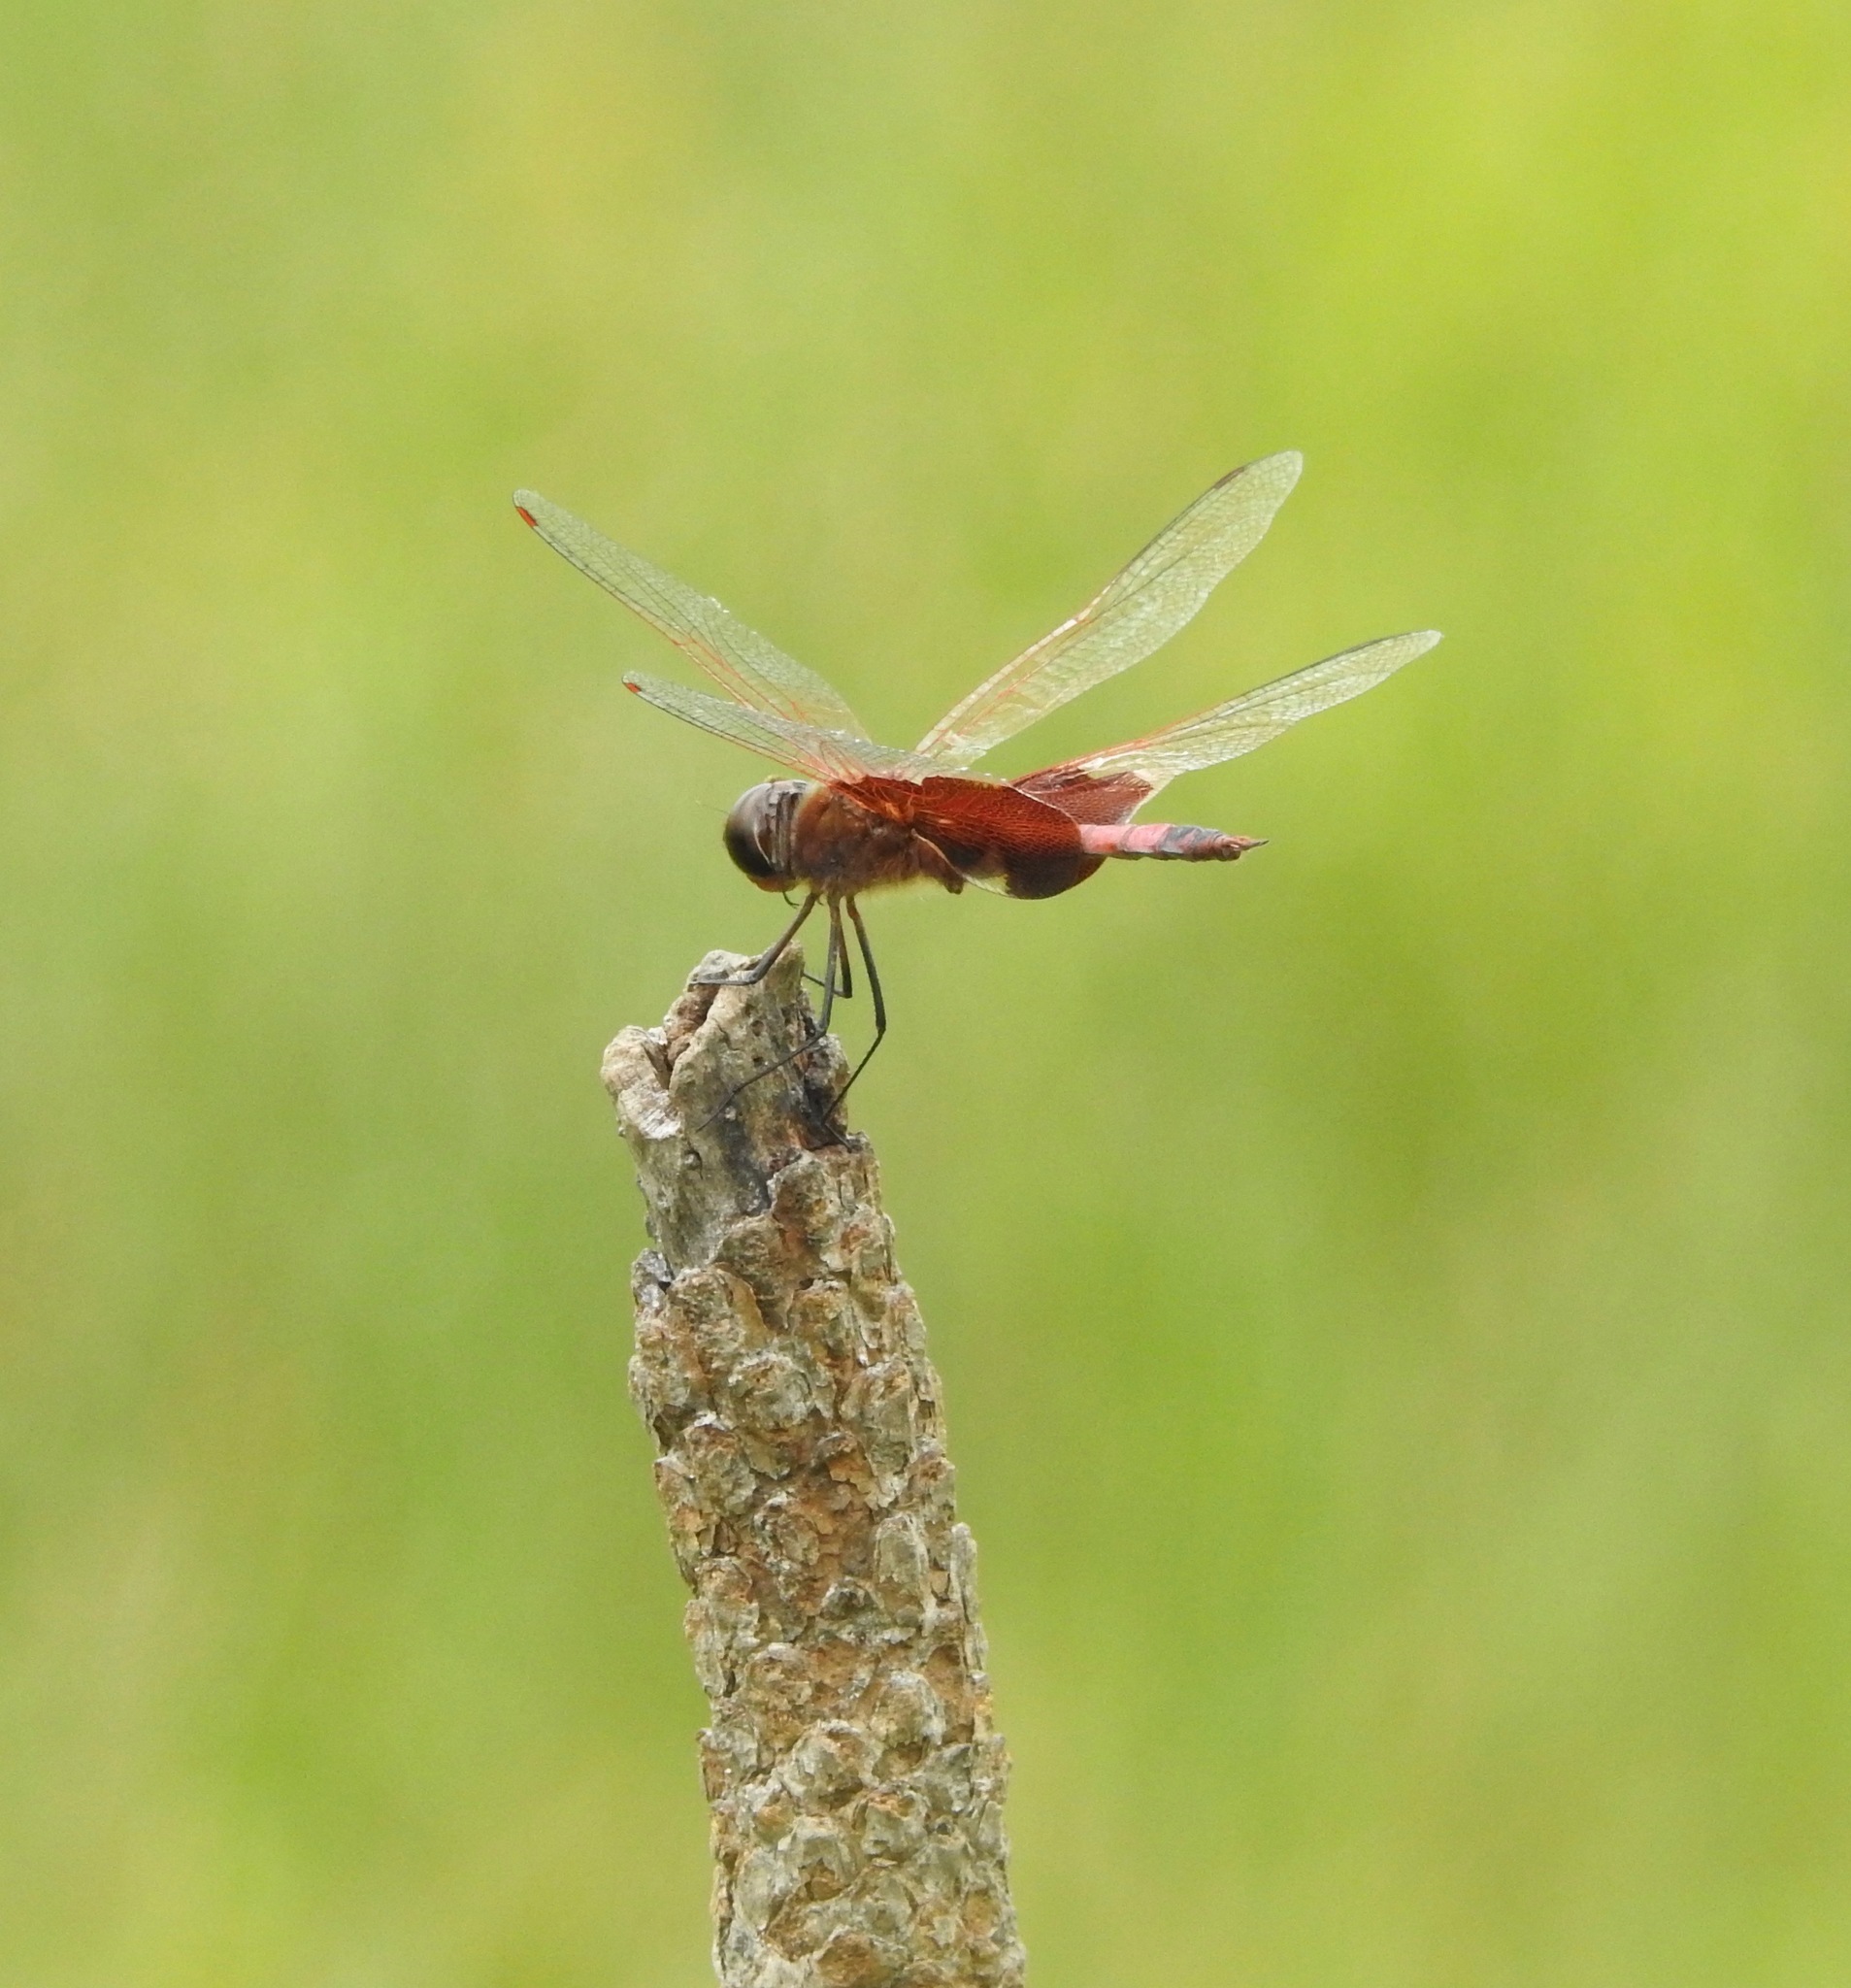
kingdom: Animalia
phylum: Arthropoda
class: Insecta
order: Odonata
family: Libellulidae
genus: Tramea
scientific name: Tramea carolina
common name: Carolina saddlebags
